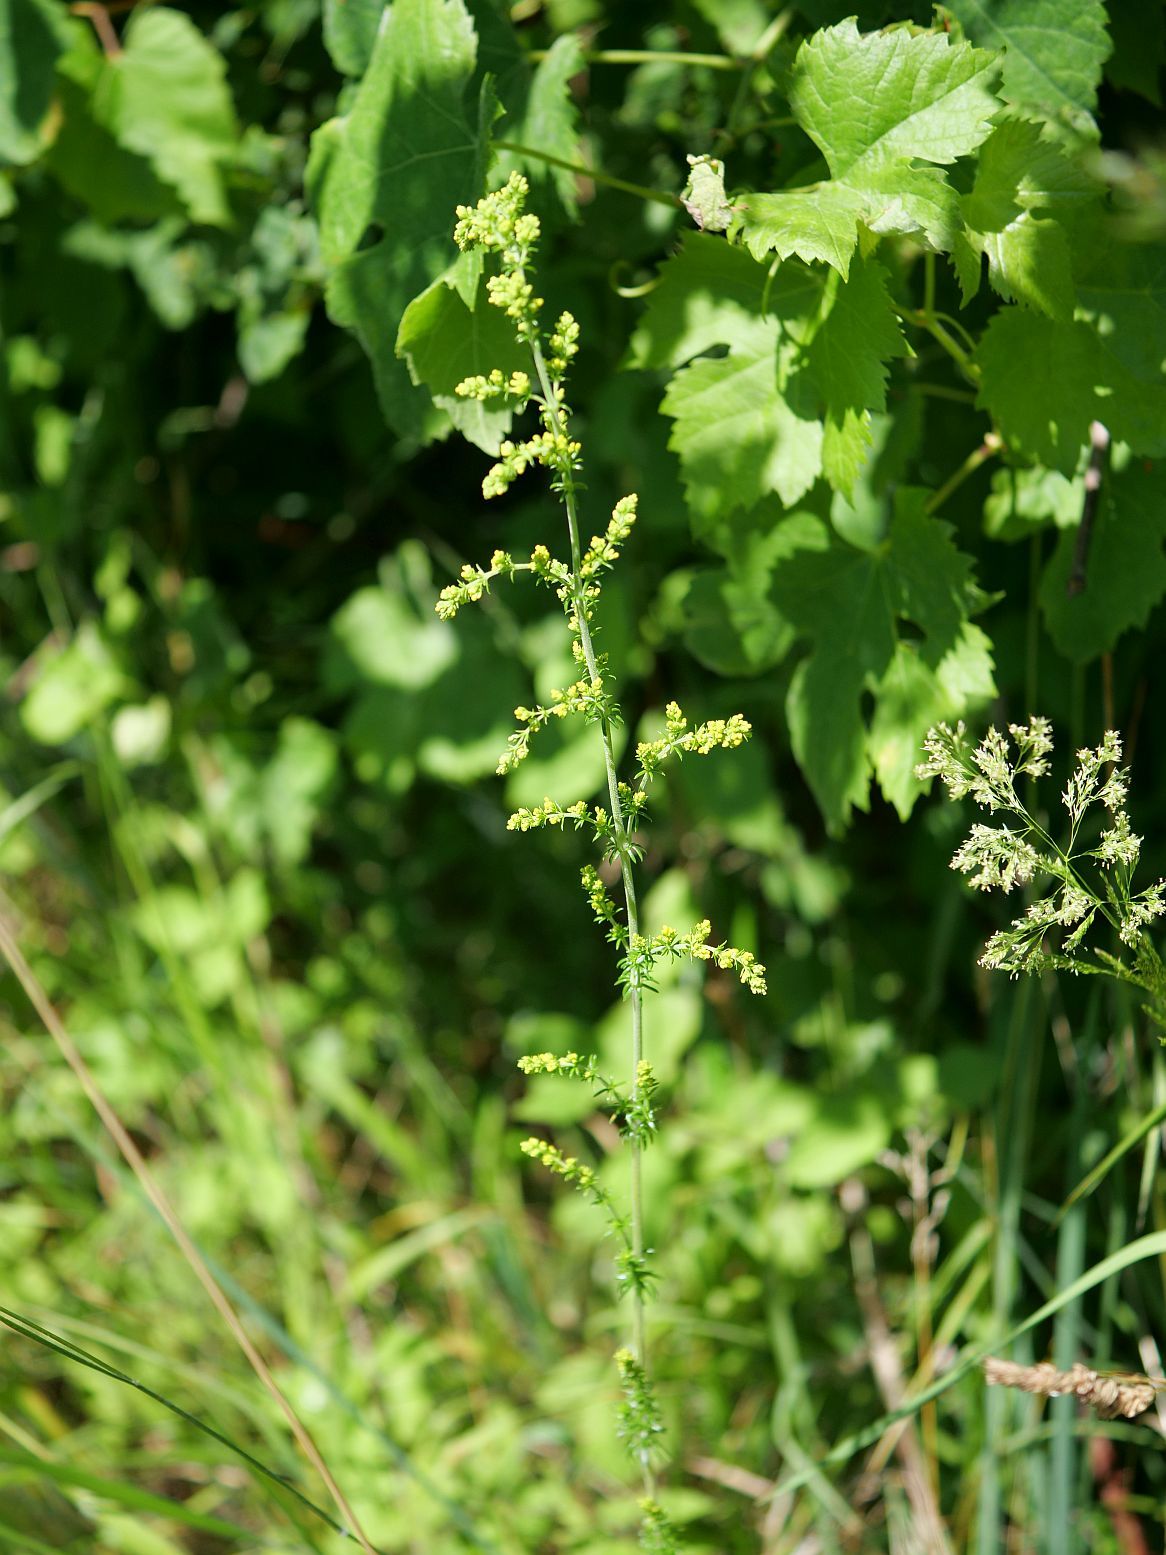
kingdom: Plantae
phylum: Tracheophyta
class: Magnoliopsida
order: Gentianales
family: Rubiaceae
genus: Galium
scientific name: Galium verum
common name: Lady's bedstraw
